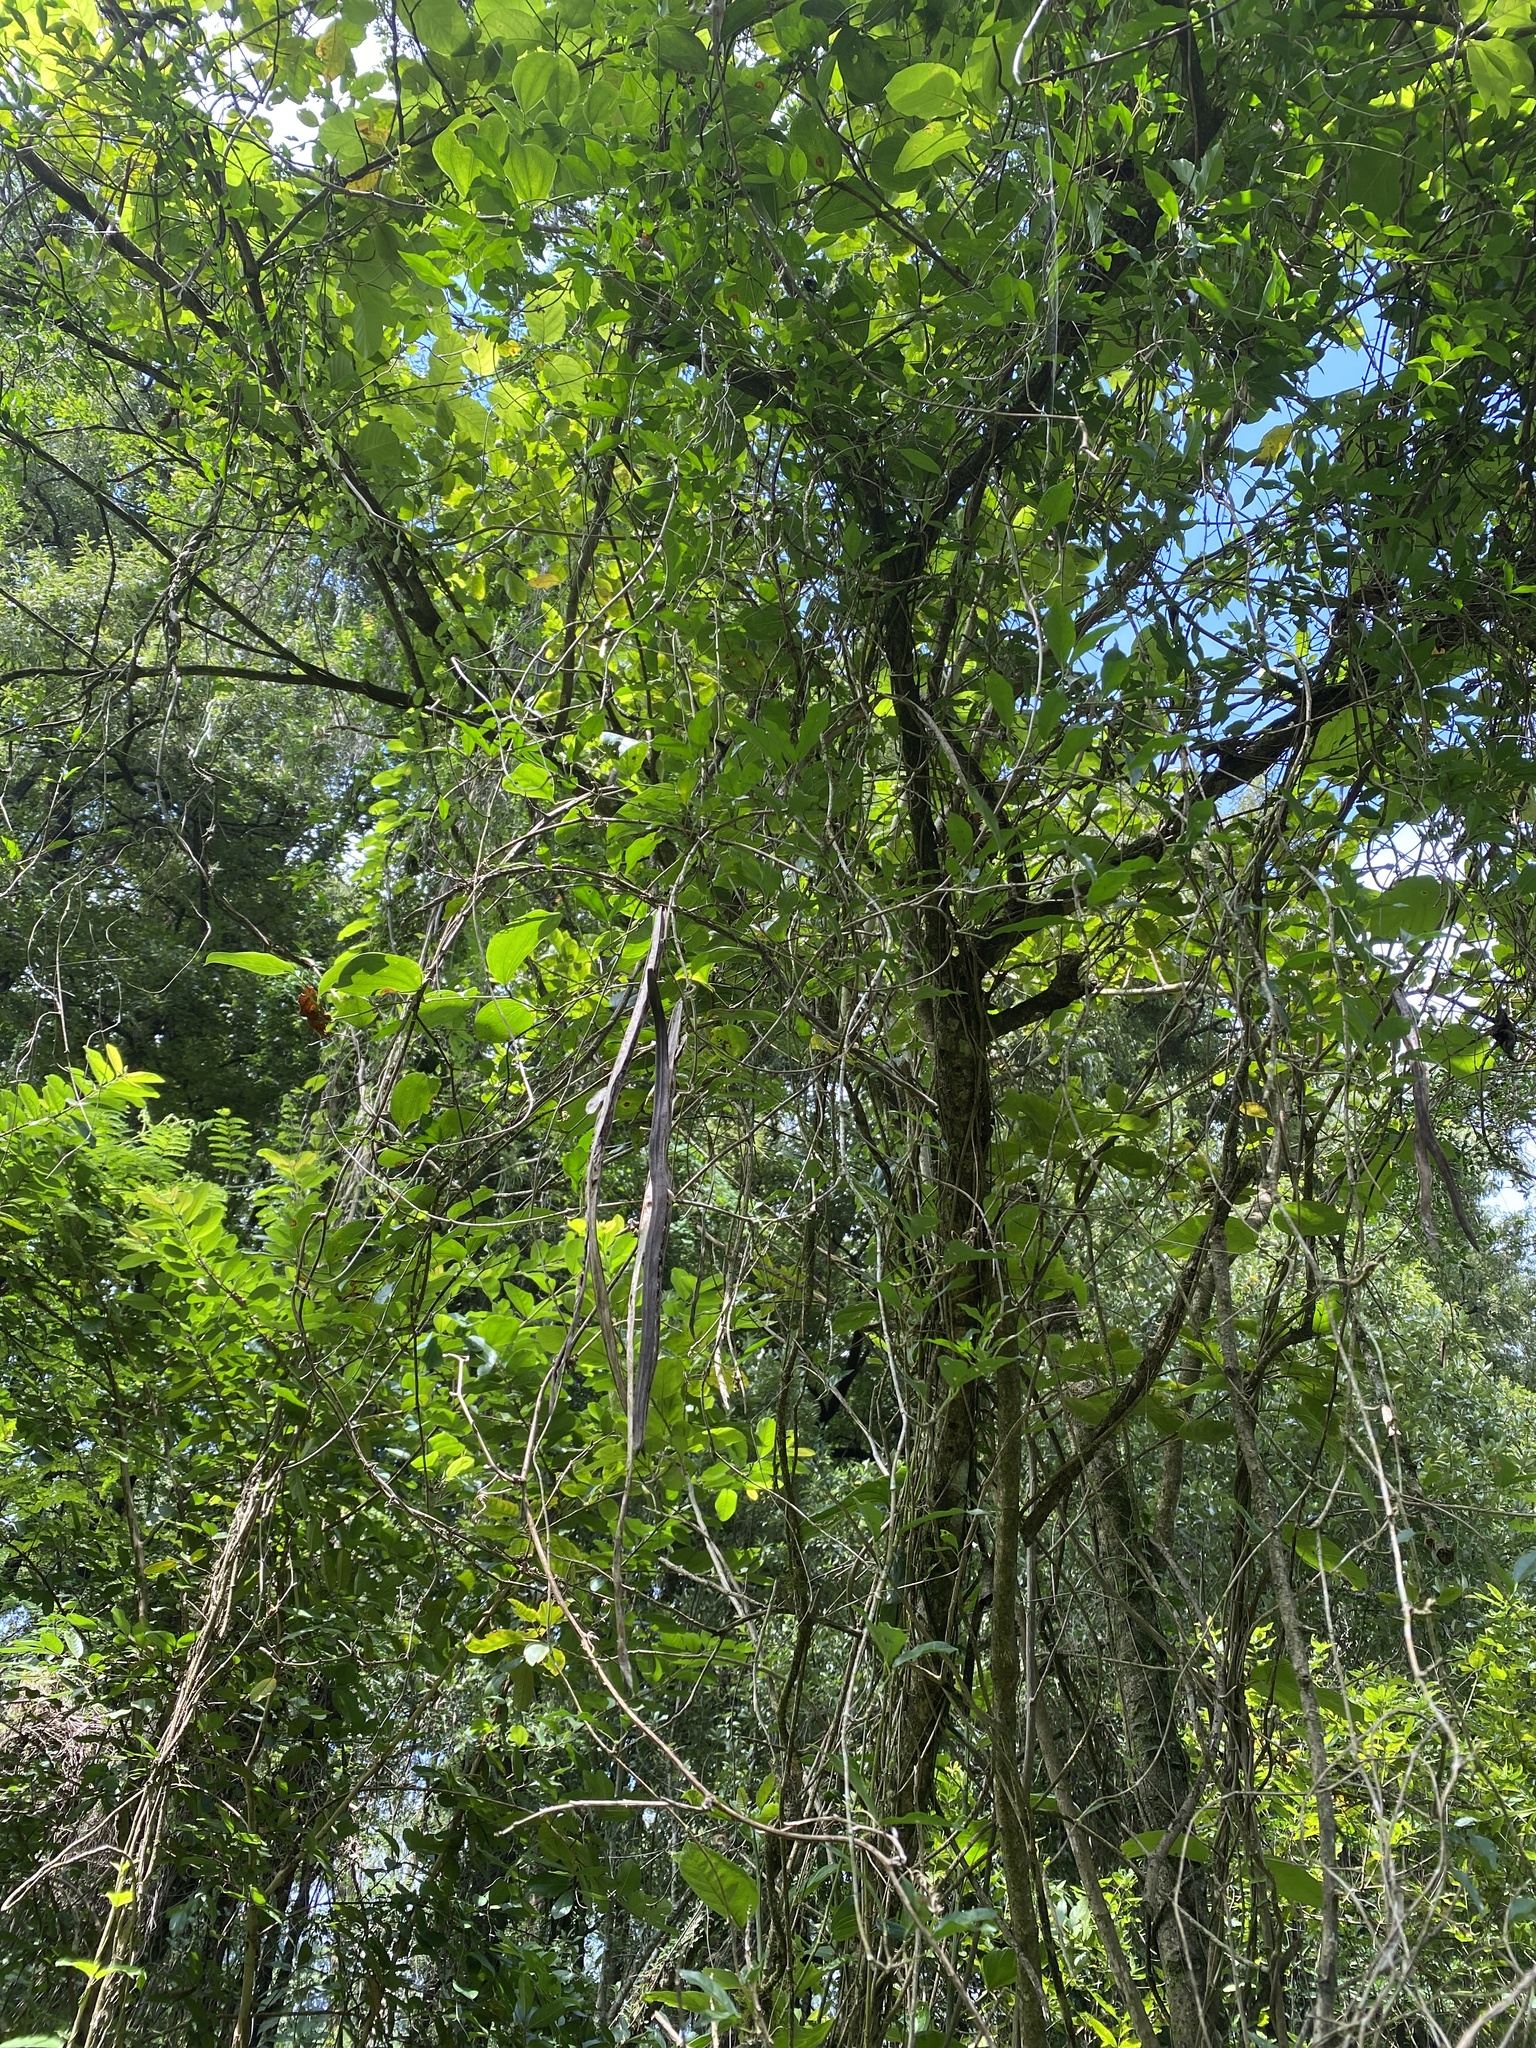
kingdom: Plantae
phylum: Tracheophyta
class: Magnoliopsida
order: Lamiales
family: Bignoniaceae
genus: Dolichandra
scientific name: Dolichandra unguis-cati
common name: Catclaw vine
